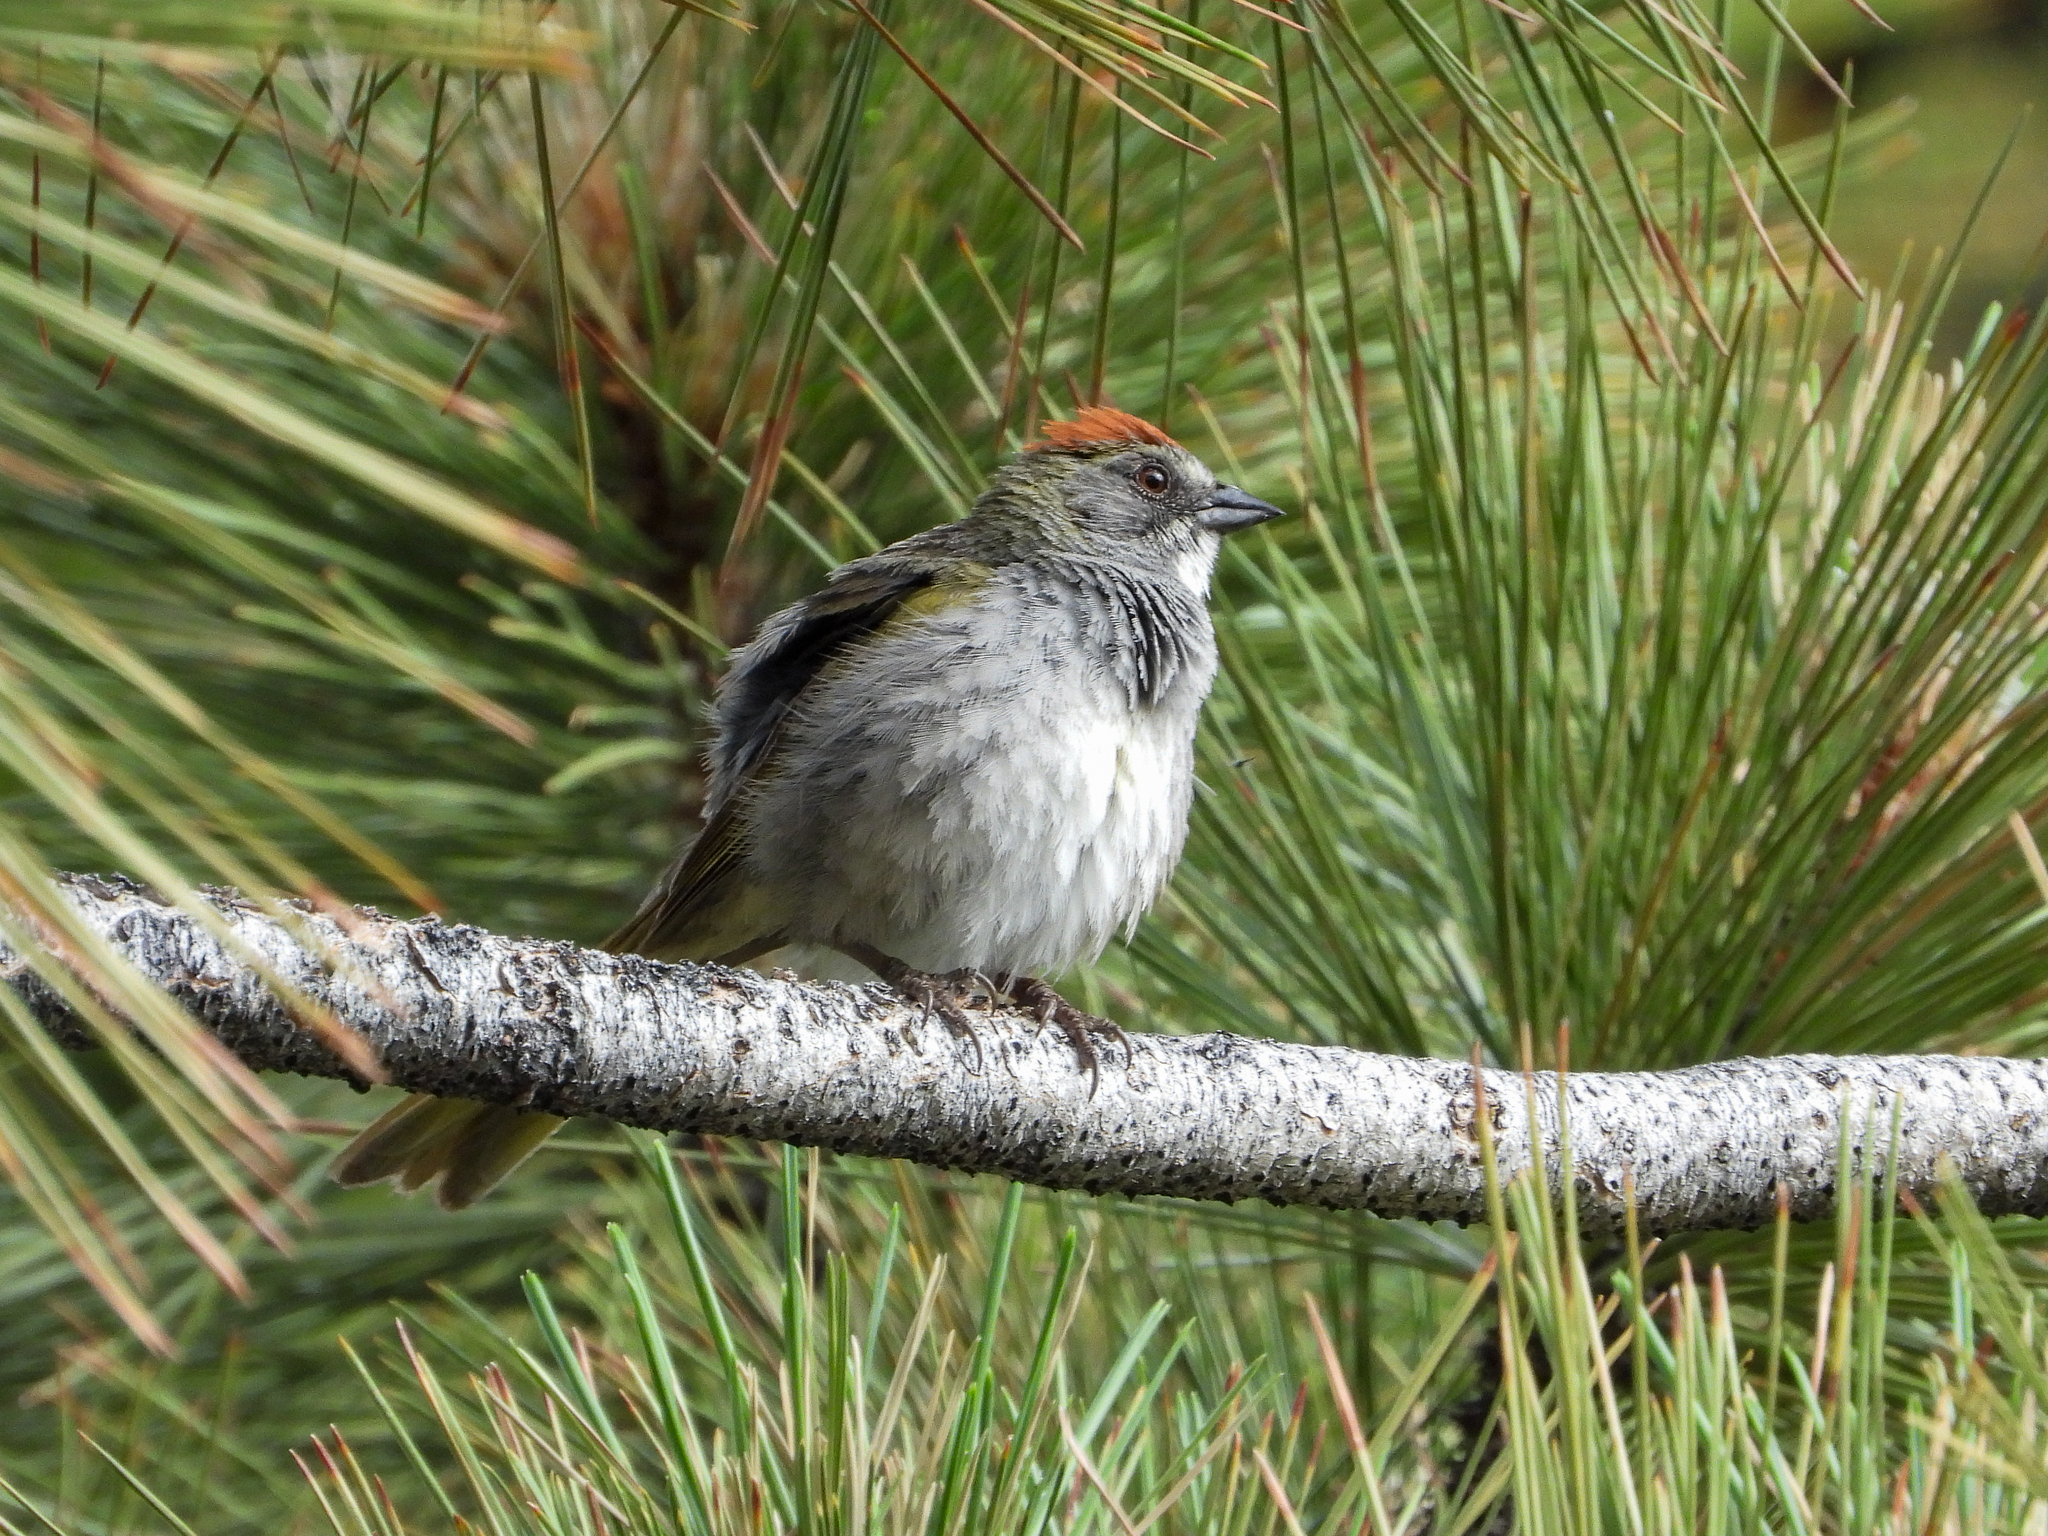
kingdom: Animalia
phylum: Chordata
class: Aves
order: Passeriformes
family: Passerellidae
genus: Pipilo
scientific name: Pipilo chlorurus
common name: Green-tailed towhee
